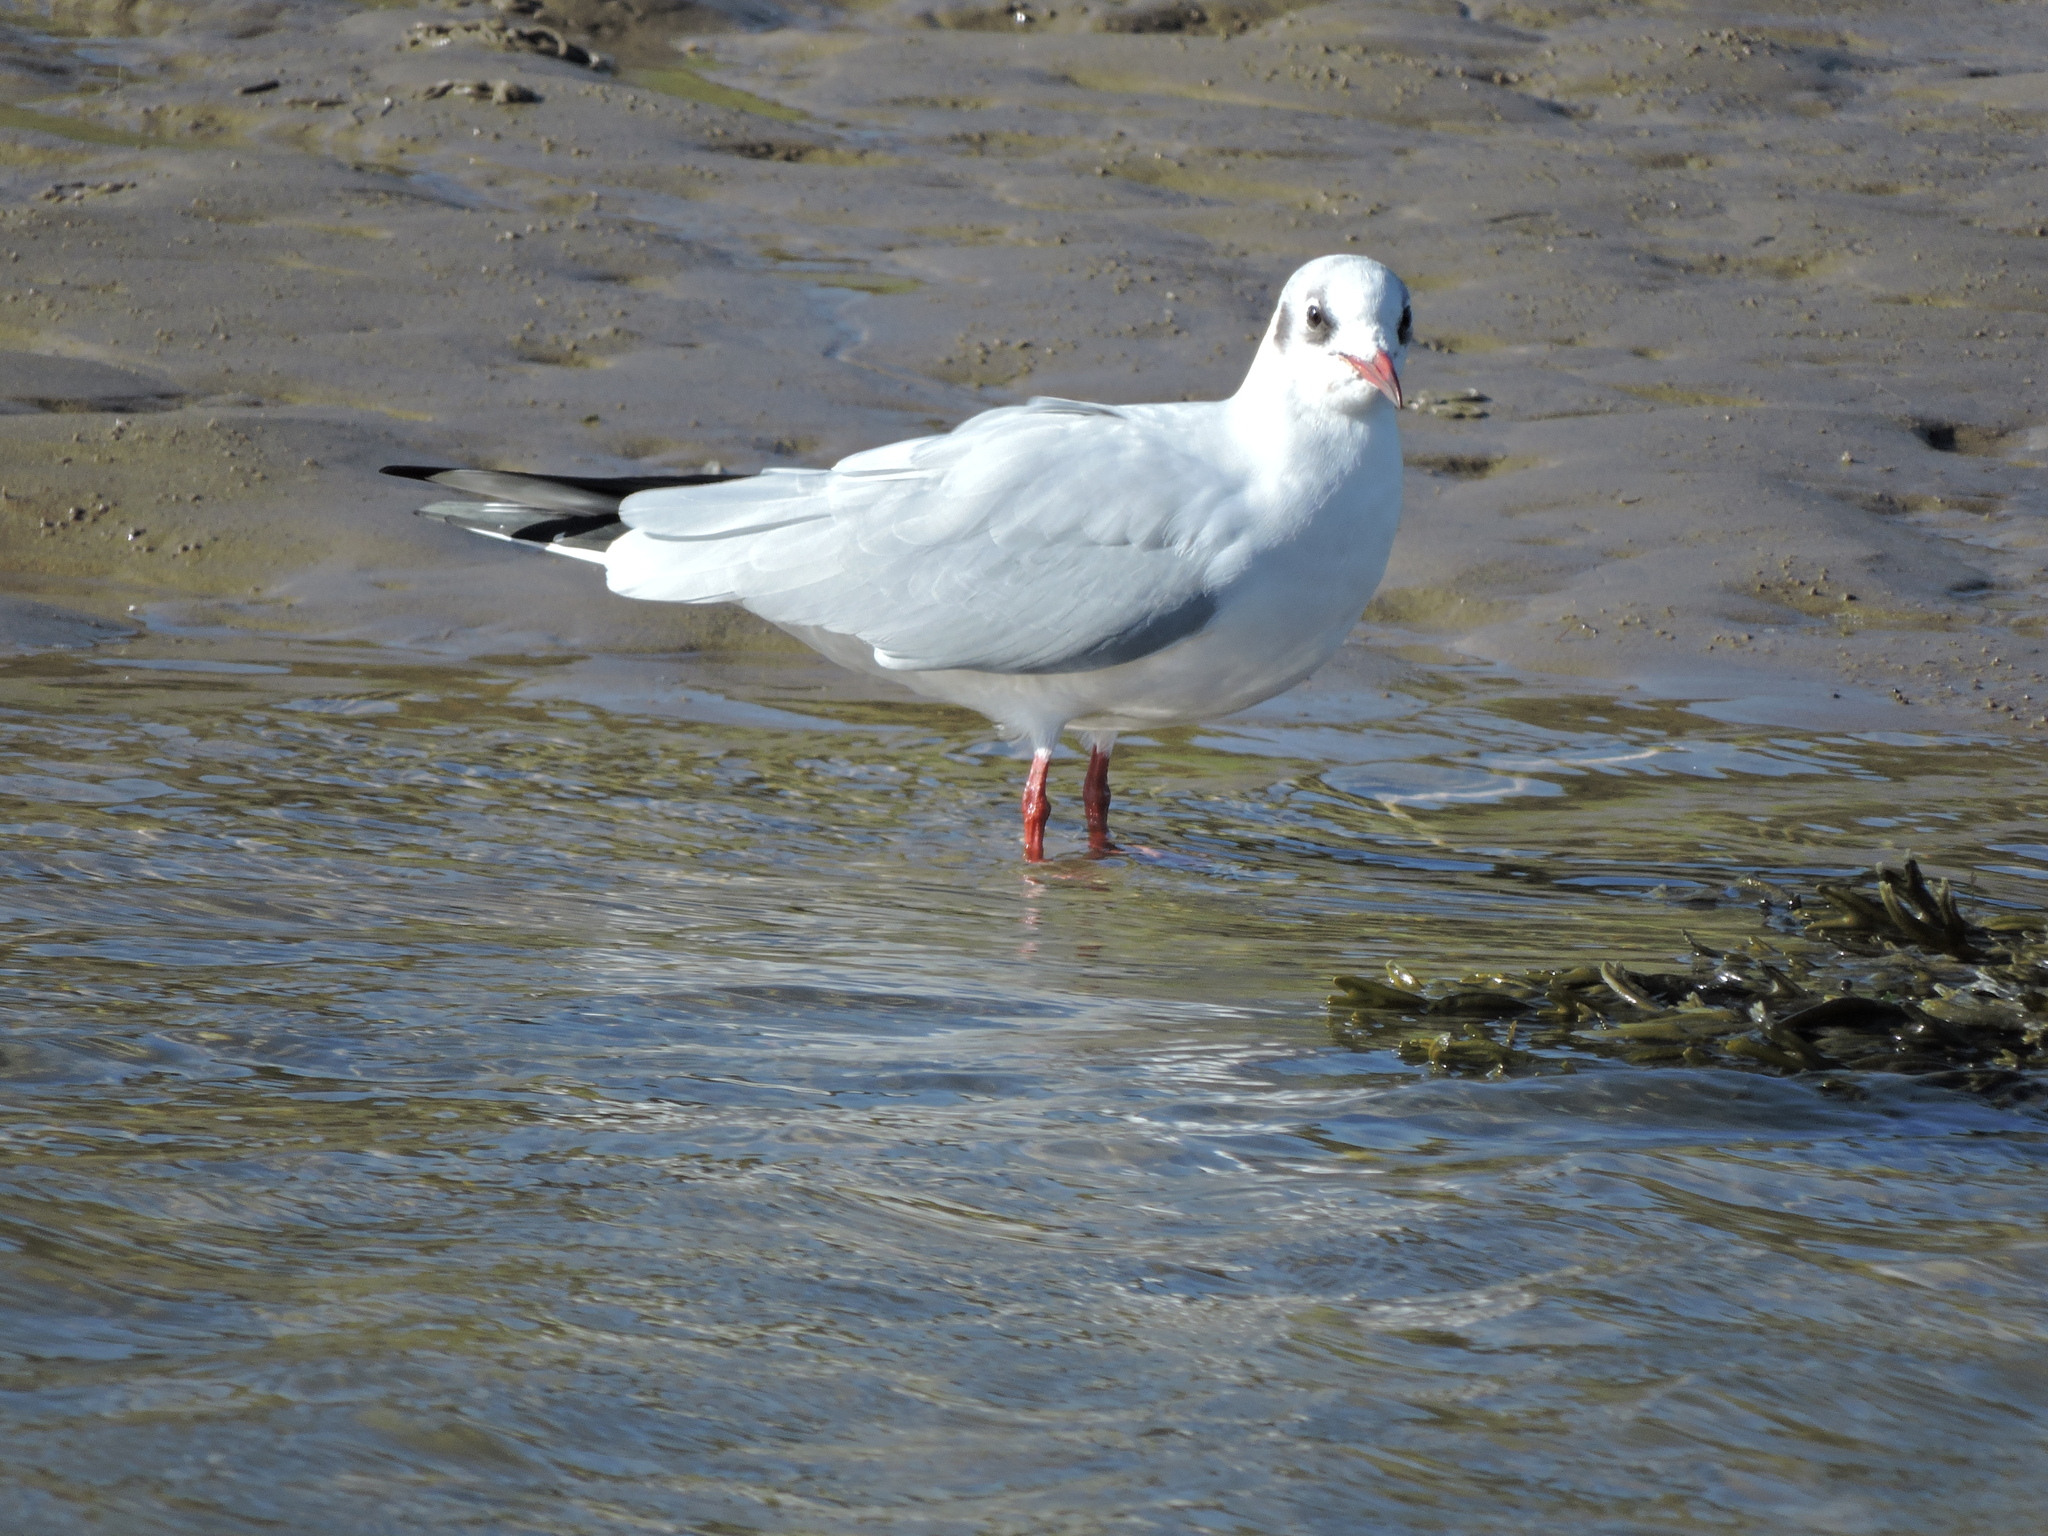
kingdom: Animalia
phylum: Chordata
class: Aves
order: Charadriiformes
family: Laridae
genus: Chroicocephalus
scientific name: Chroicocephalus ridibundus
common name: Black-headed gull
